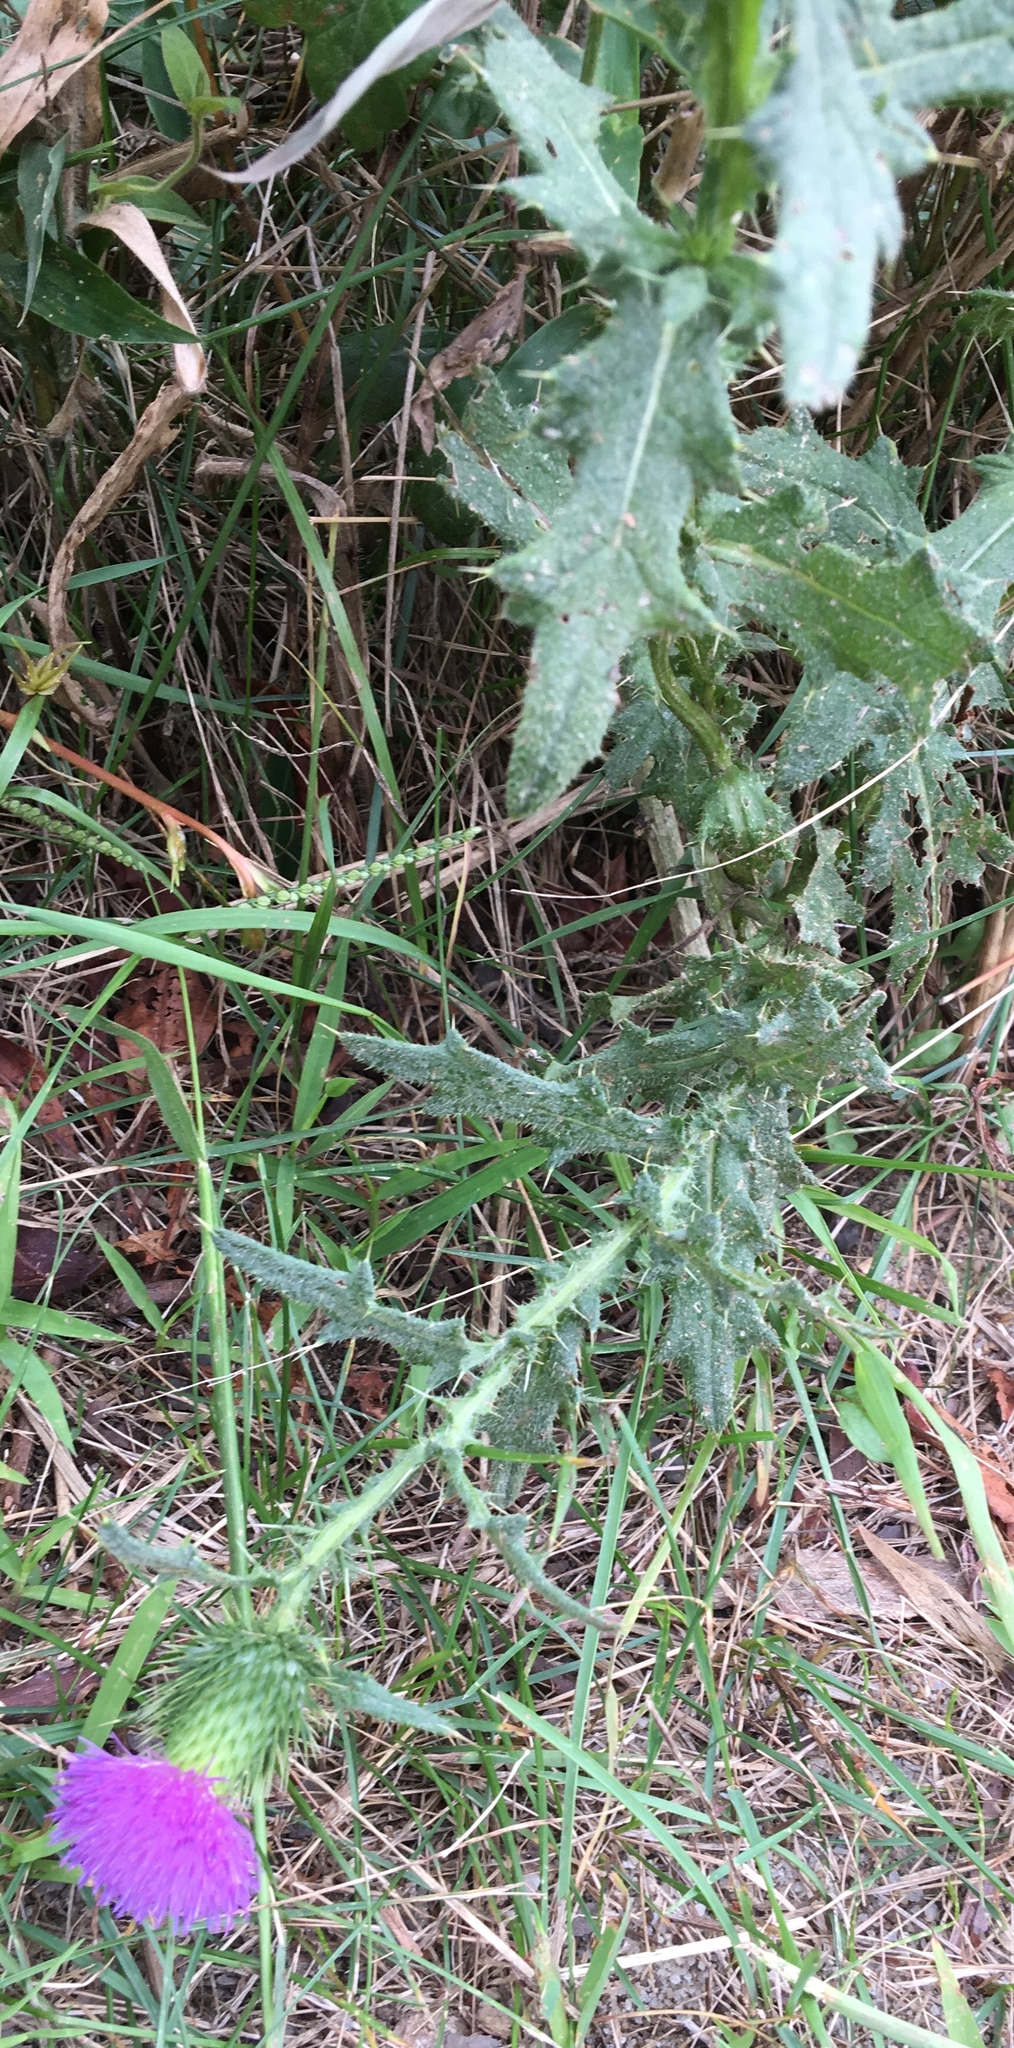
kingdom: Plantae
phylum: Tracheophyta
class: Magnoliopsida
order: Asterales
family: Asteraceae
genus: Cirsium
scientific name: Cirsium vulgare
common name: Bull thistle
